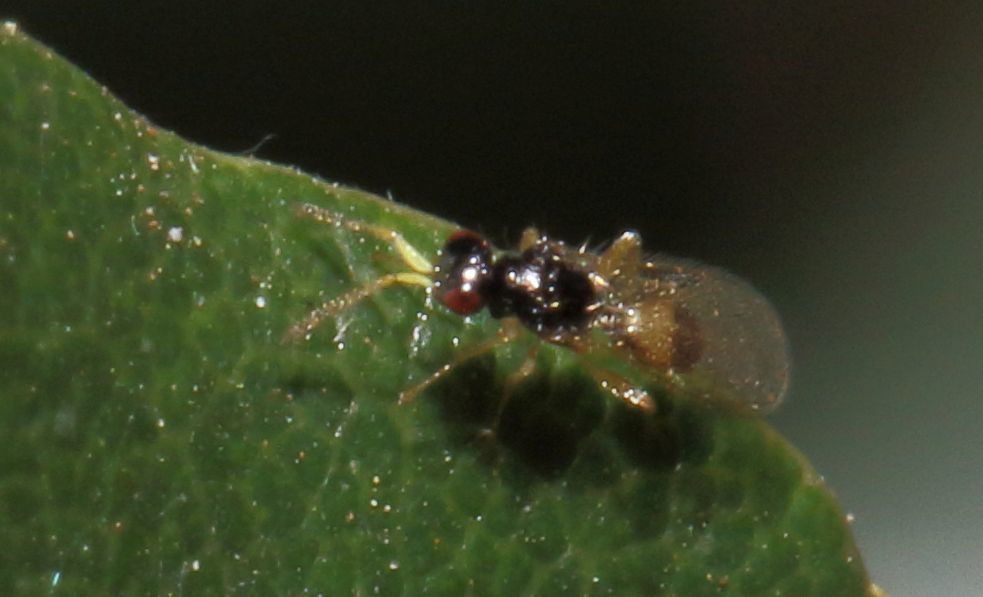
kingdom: Animalia
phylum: Arthropoda
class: Insecta
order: Hymenoptera
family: Eulophidae
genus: Euplectrus
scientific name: Euplectrus
